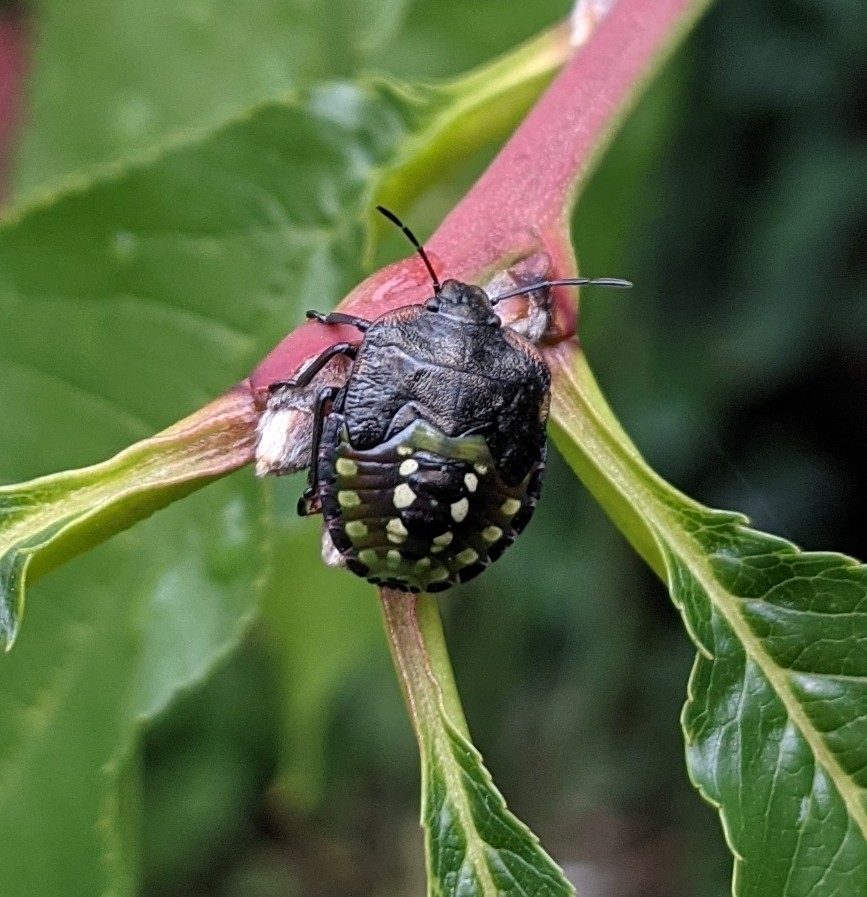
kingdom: Animalia
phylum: Arthropoda
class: Insecta
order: Hemiptera
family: Pentatomidae
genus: Nezara
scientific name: Nezara viridula
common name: Southern green stink bug
